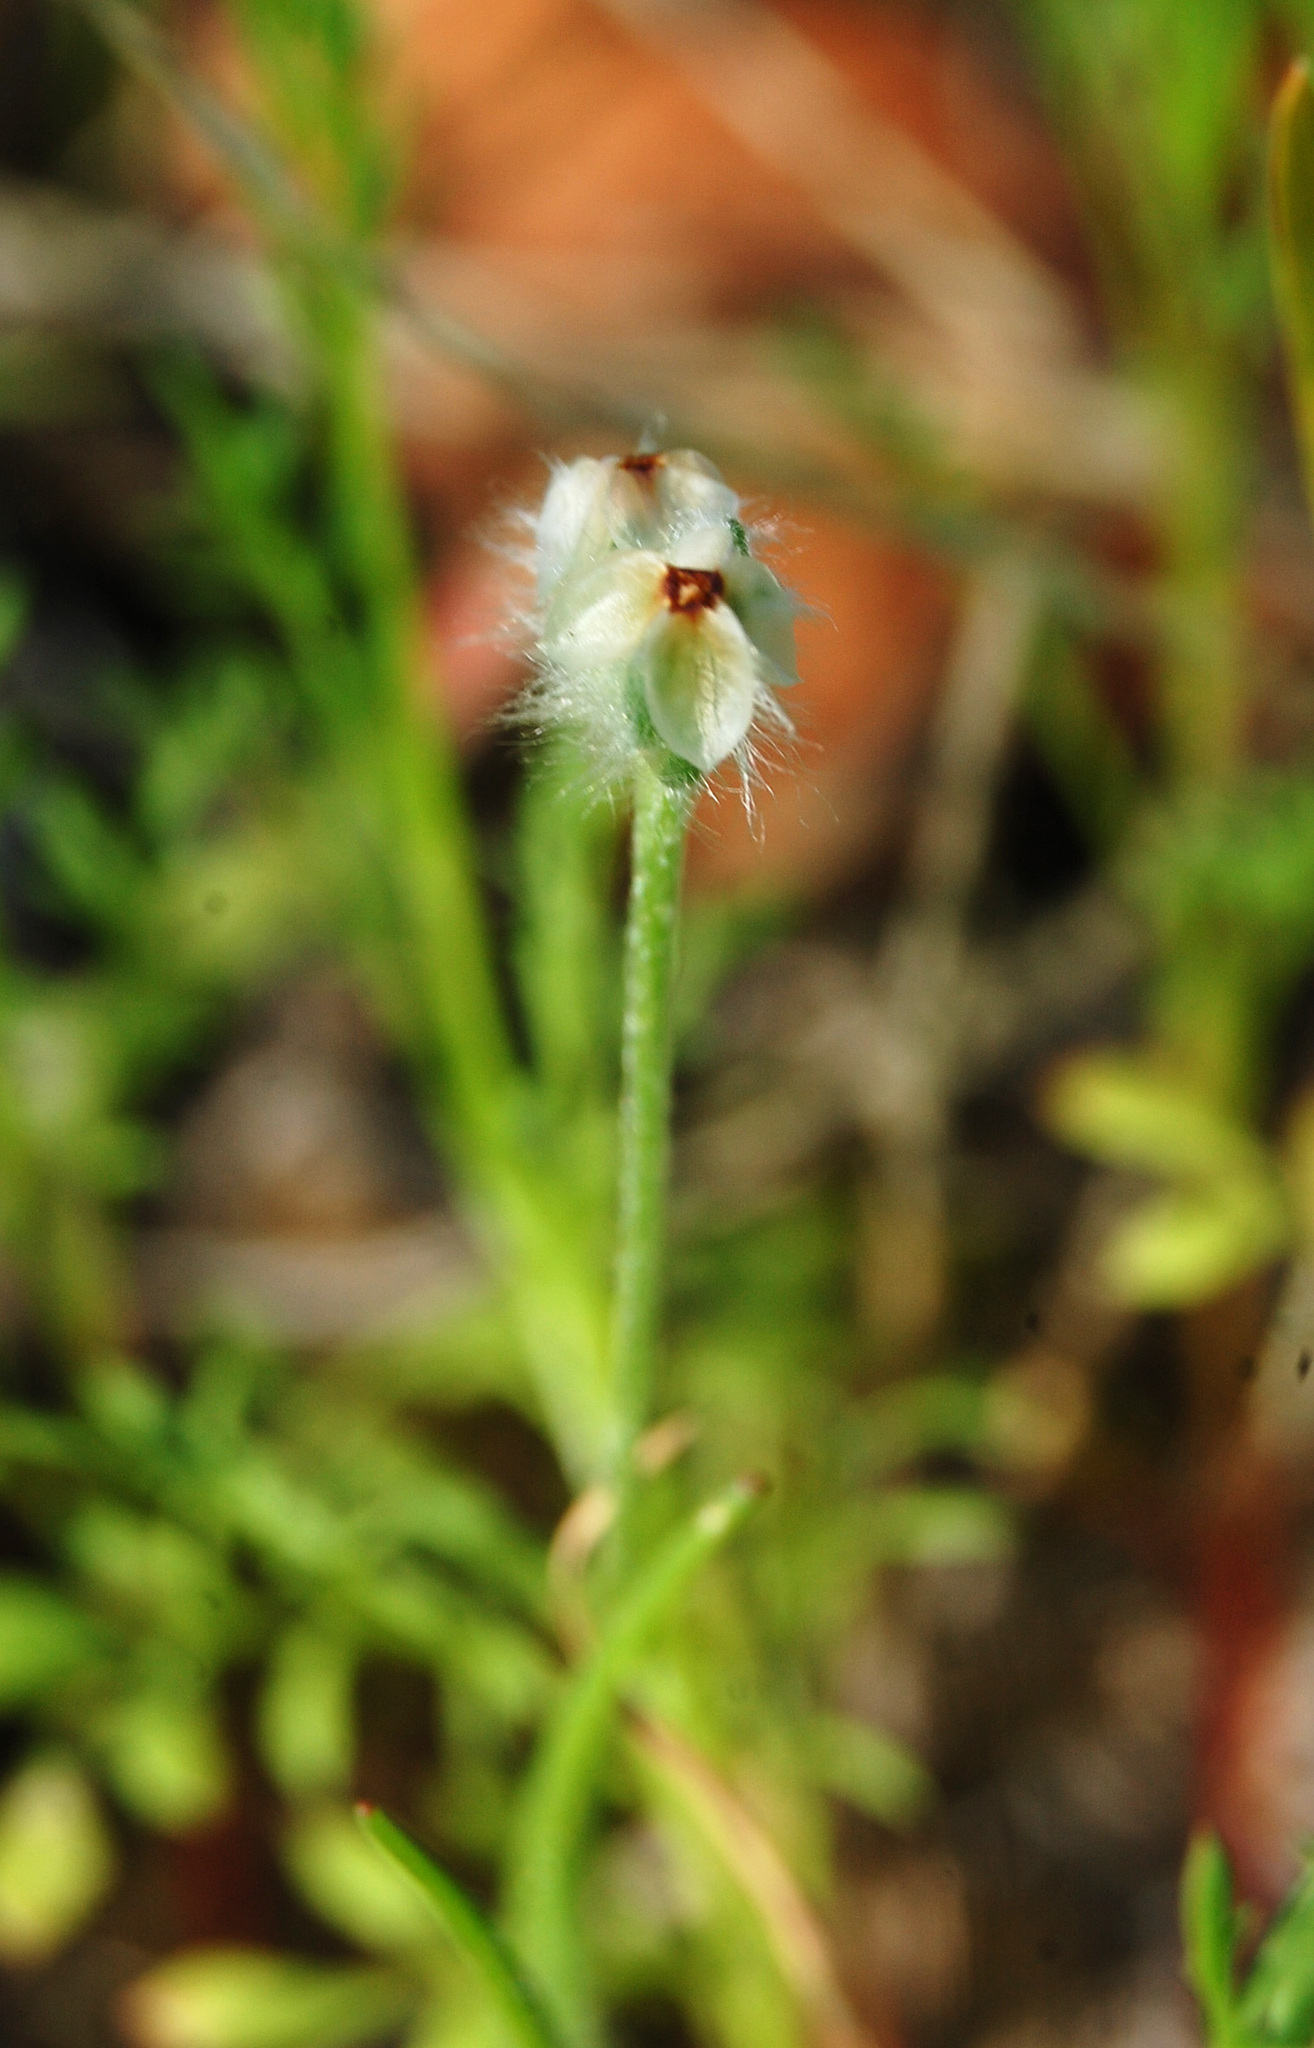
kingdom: Plantae
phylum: Tracheophyta
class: Magnoliopsida
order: Lamiales
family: Plantaginaceae
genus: Plantago
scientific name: Plantago erecta
